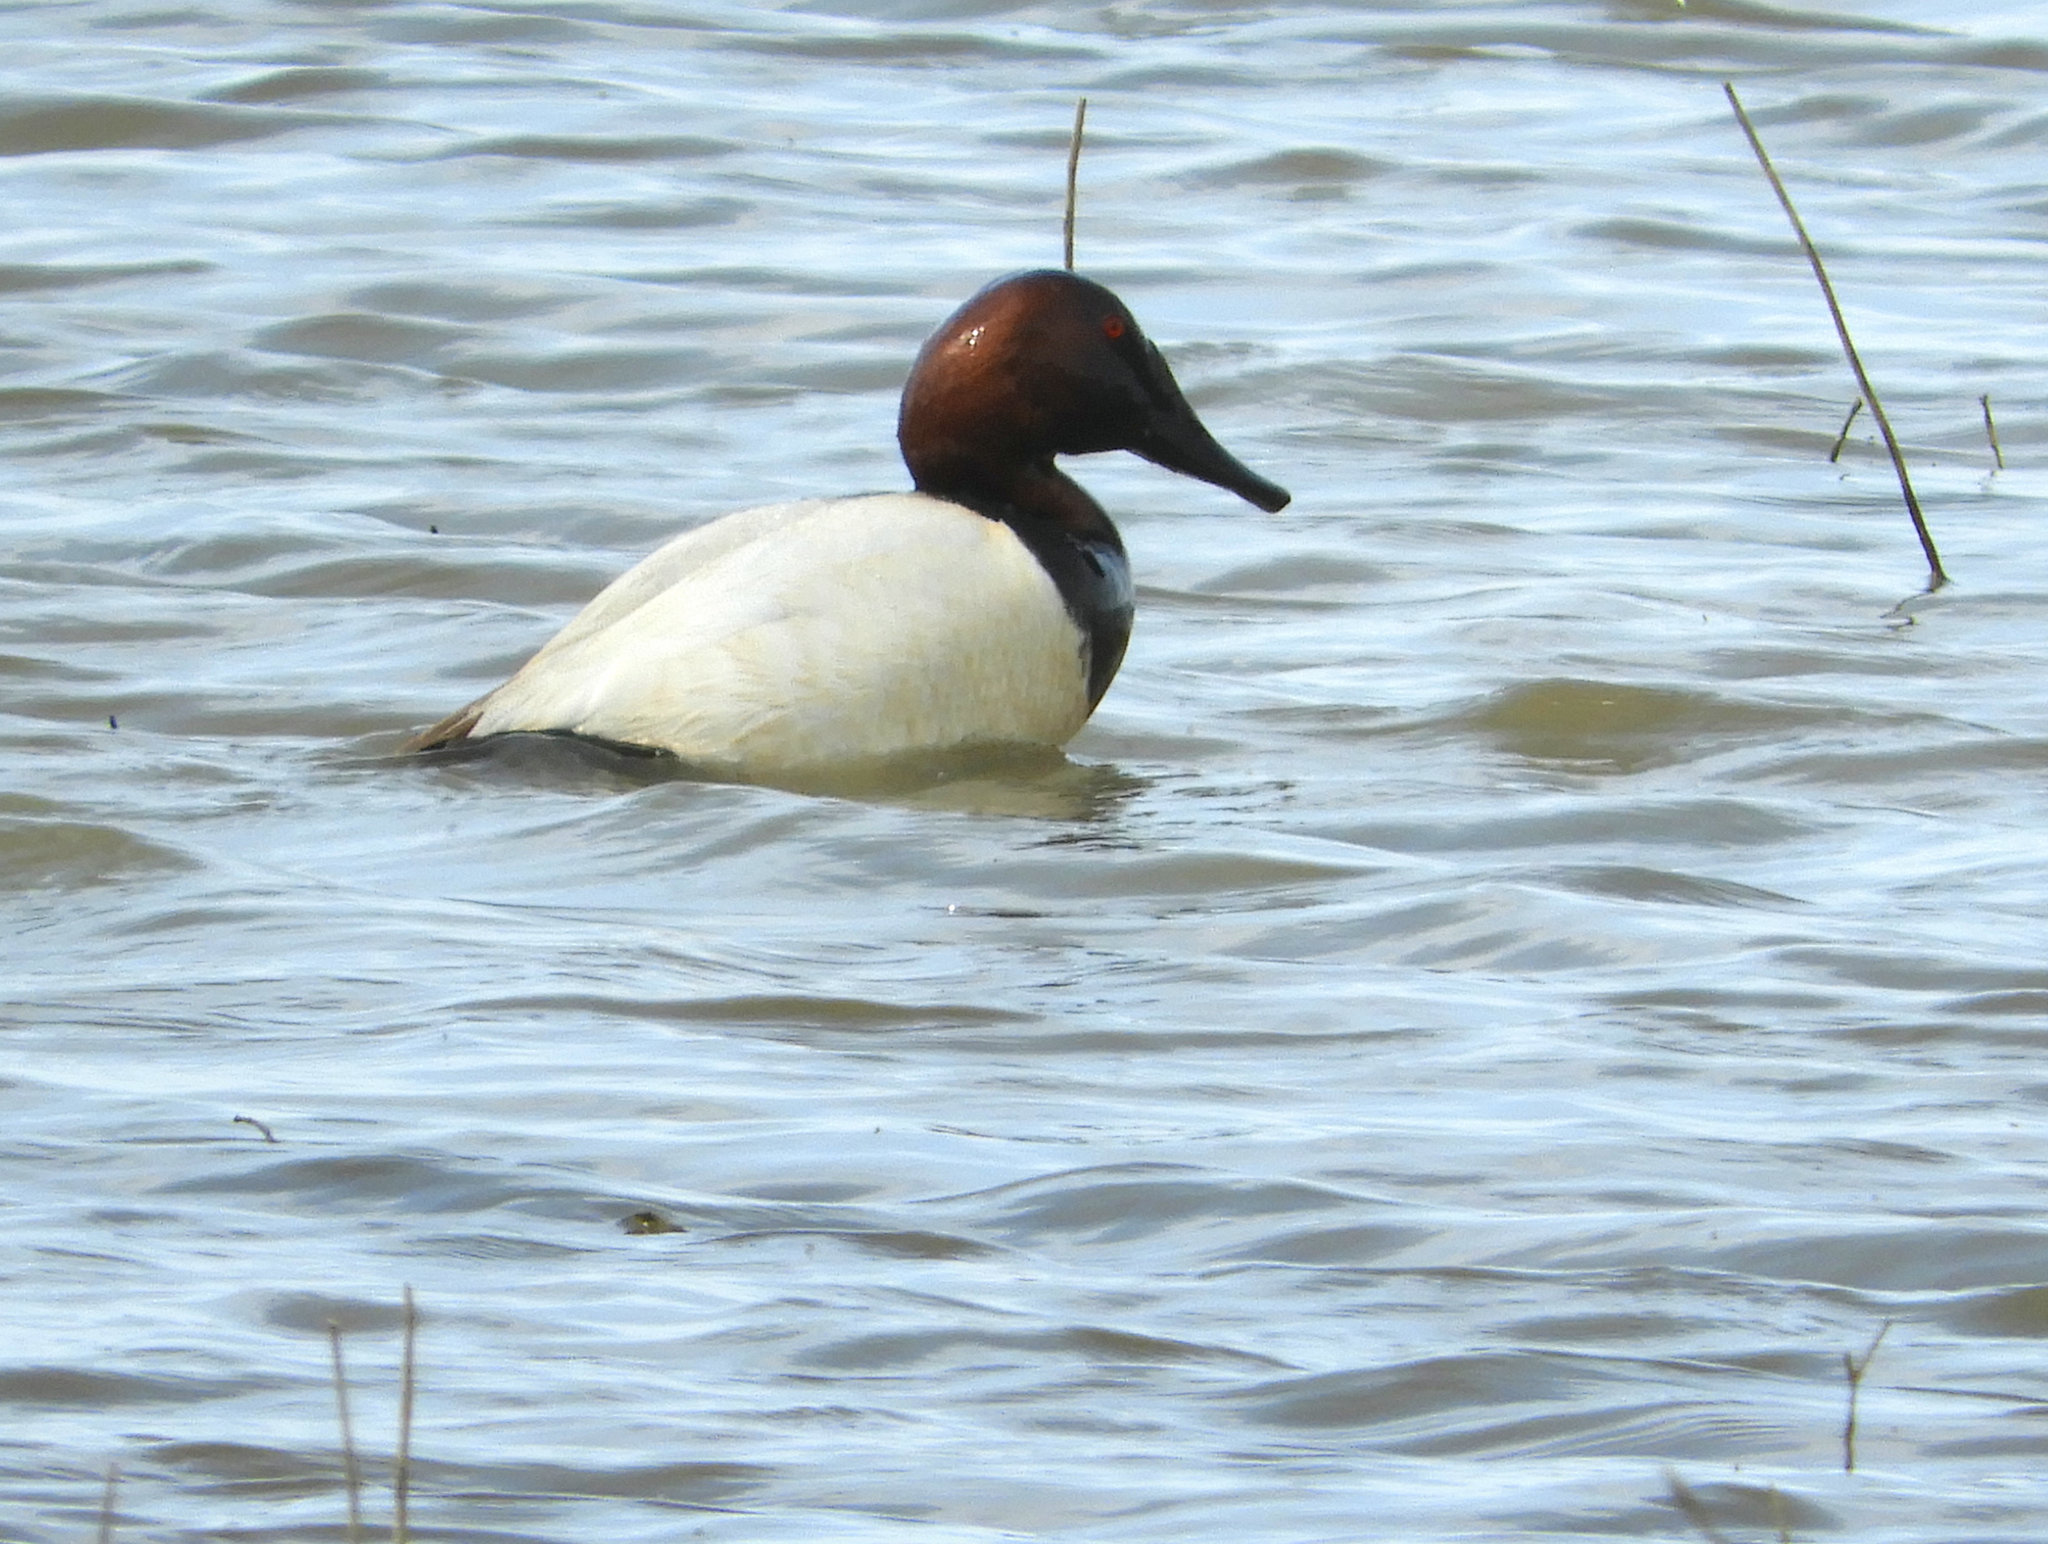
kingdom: Animalia
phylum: Chordata
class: Aves
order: Anseriformes
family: Anatidae
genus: Aythya
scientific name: Aythya valisineria
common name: Canvasback
